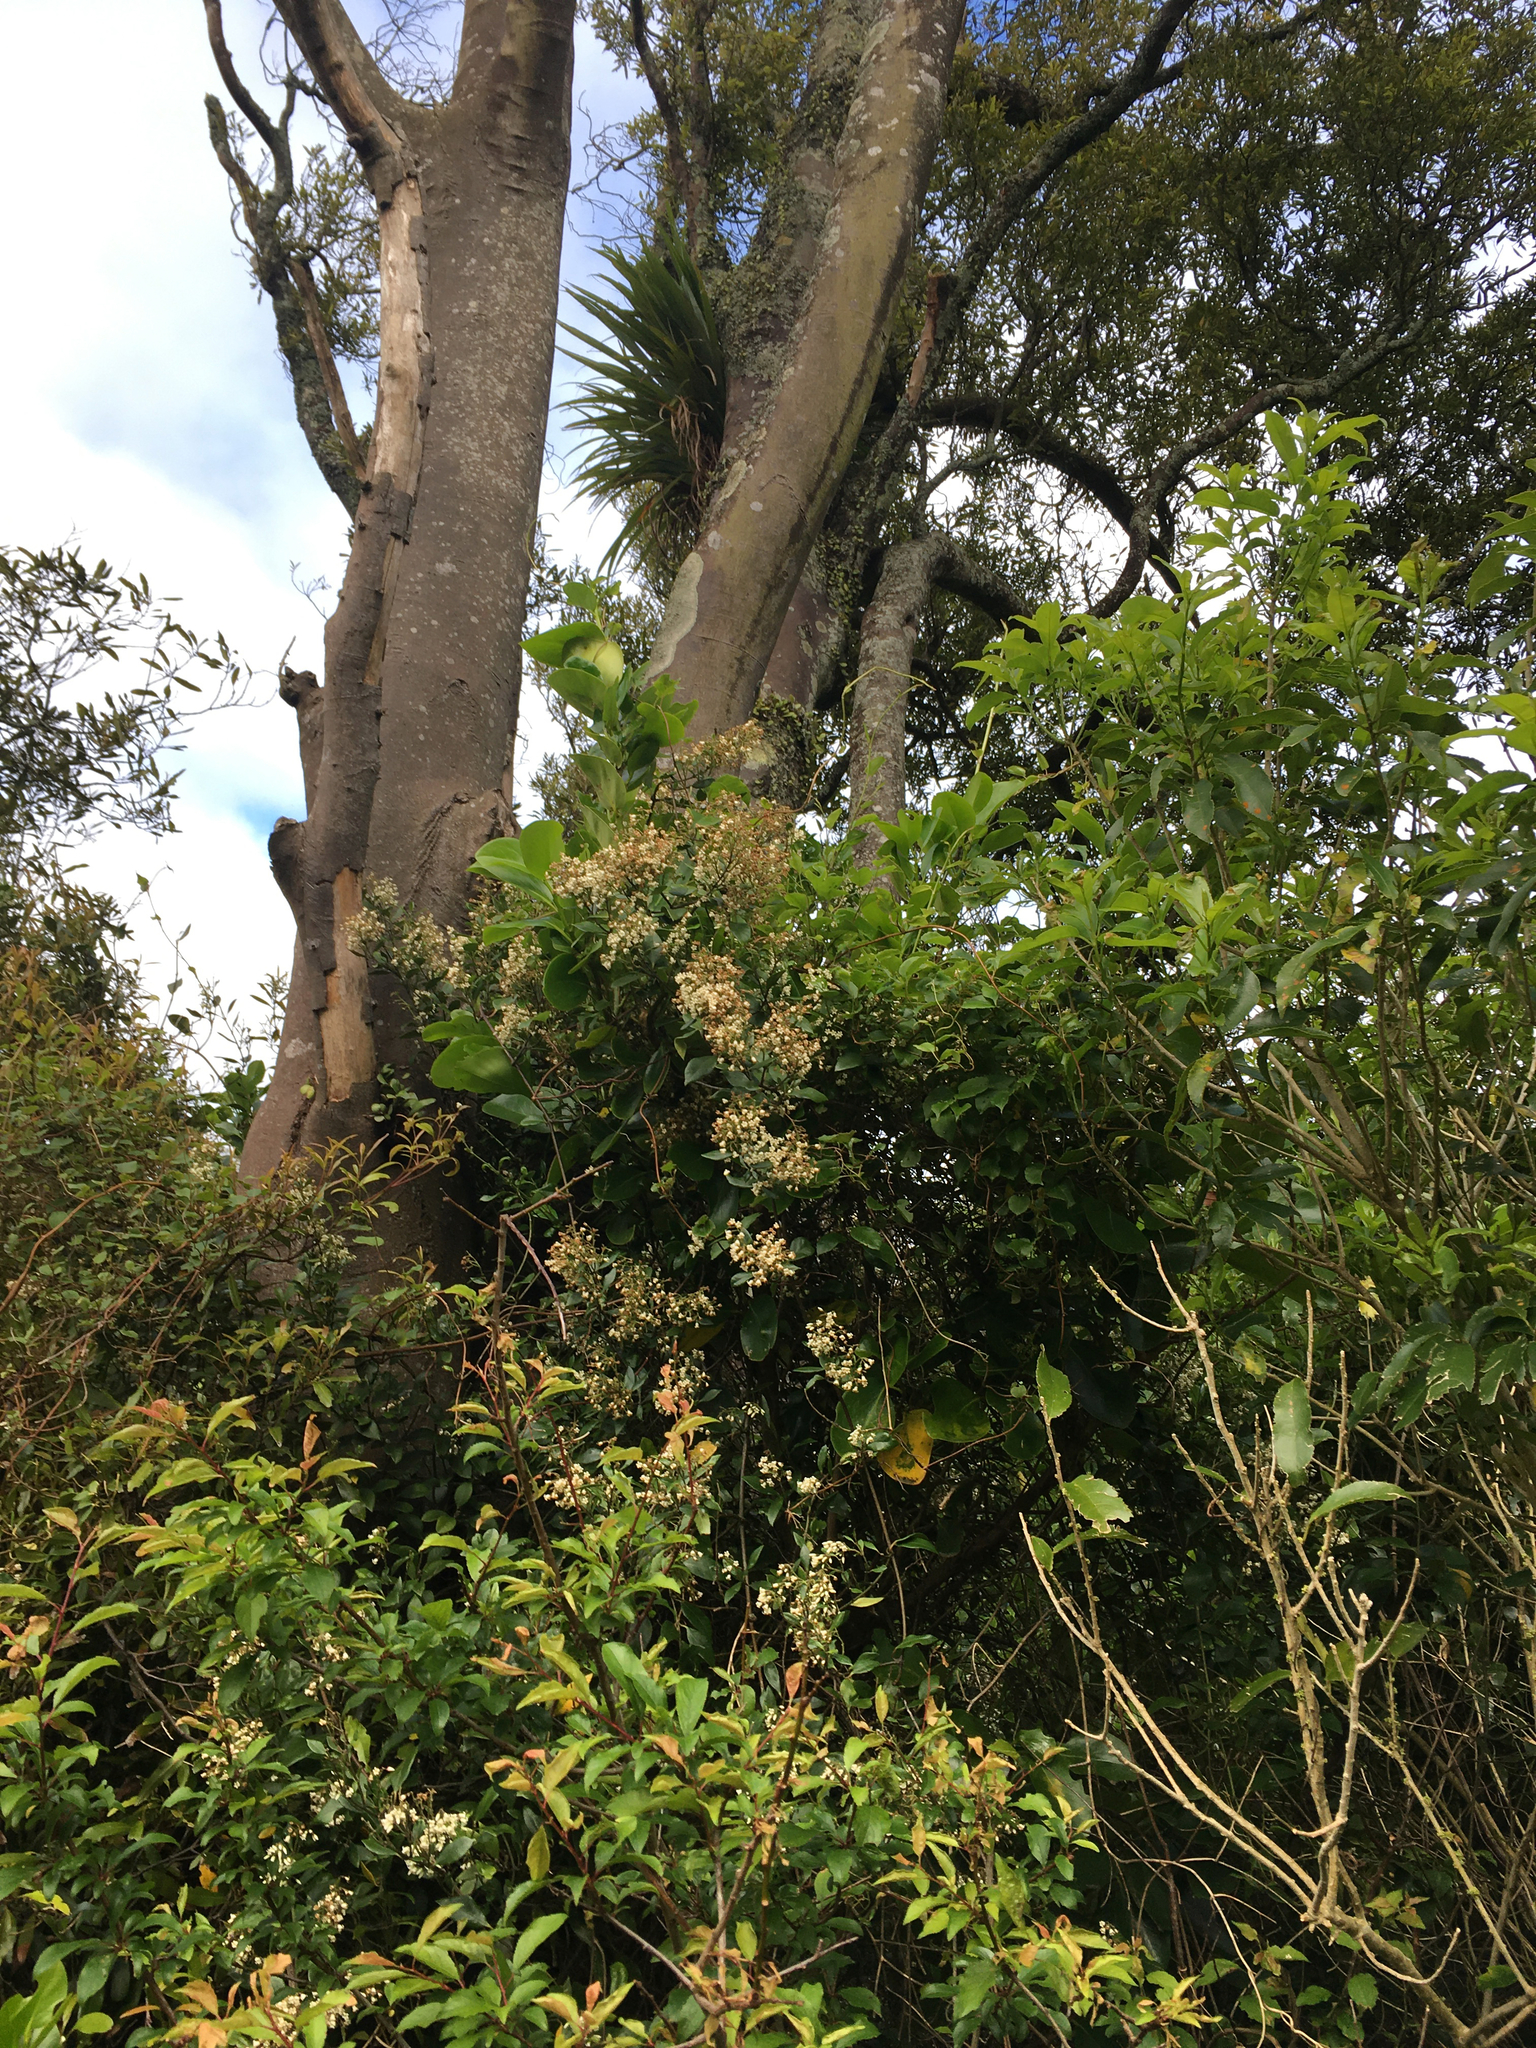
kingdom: Plantae
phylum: Tracheophyta
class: Magnoliopsida
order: Gentianales
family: Apocynaceae
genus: Parsonsia
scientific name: Parsonsia heterophylla
